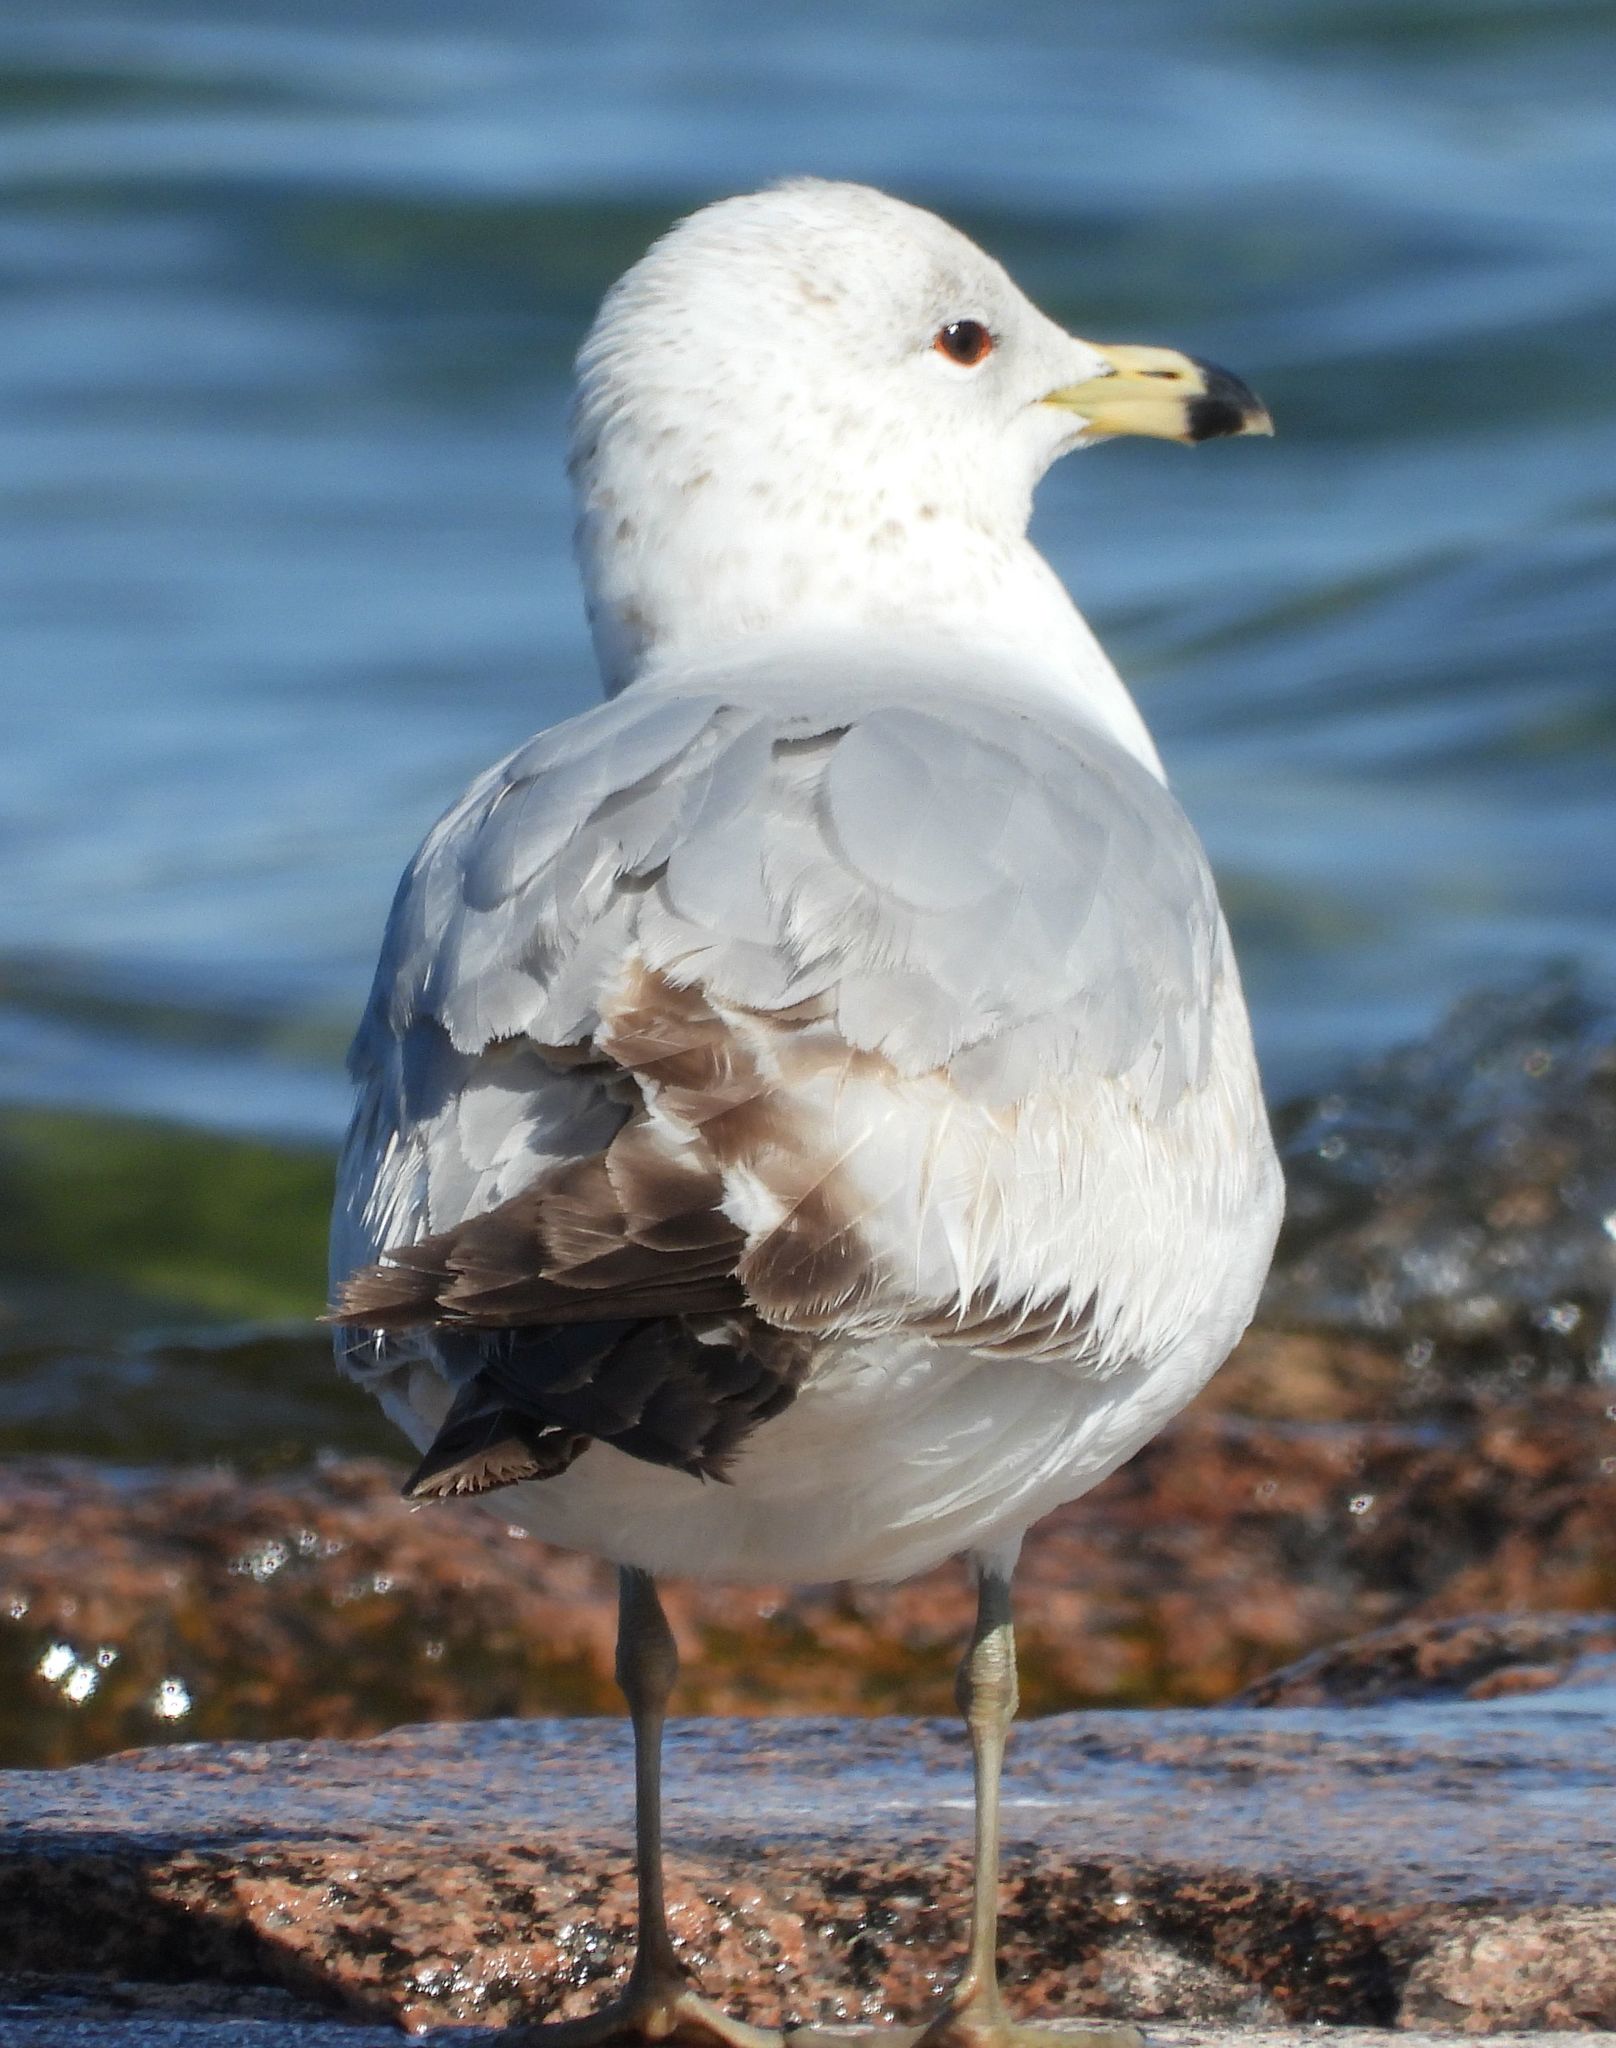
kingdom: Animalia
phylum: Chordata
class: Aves
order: Charadriiformes
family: Laridae
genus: Larus
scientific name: Larus delawarensis
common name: Ring-billed gull
